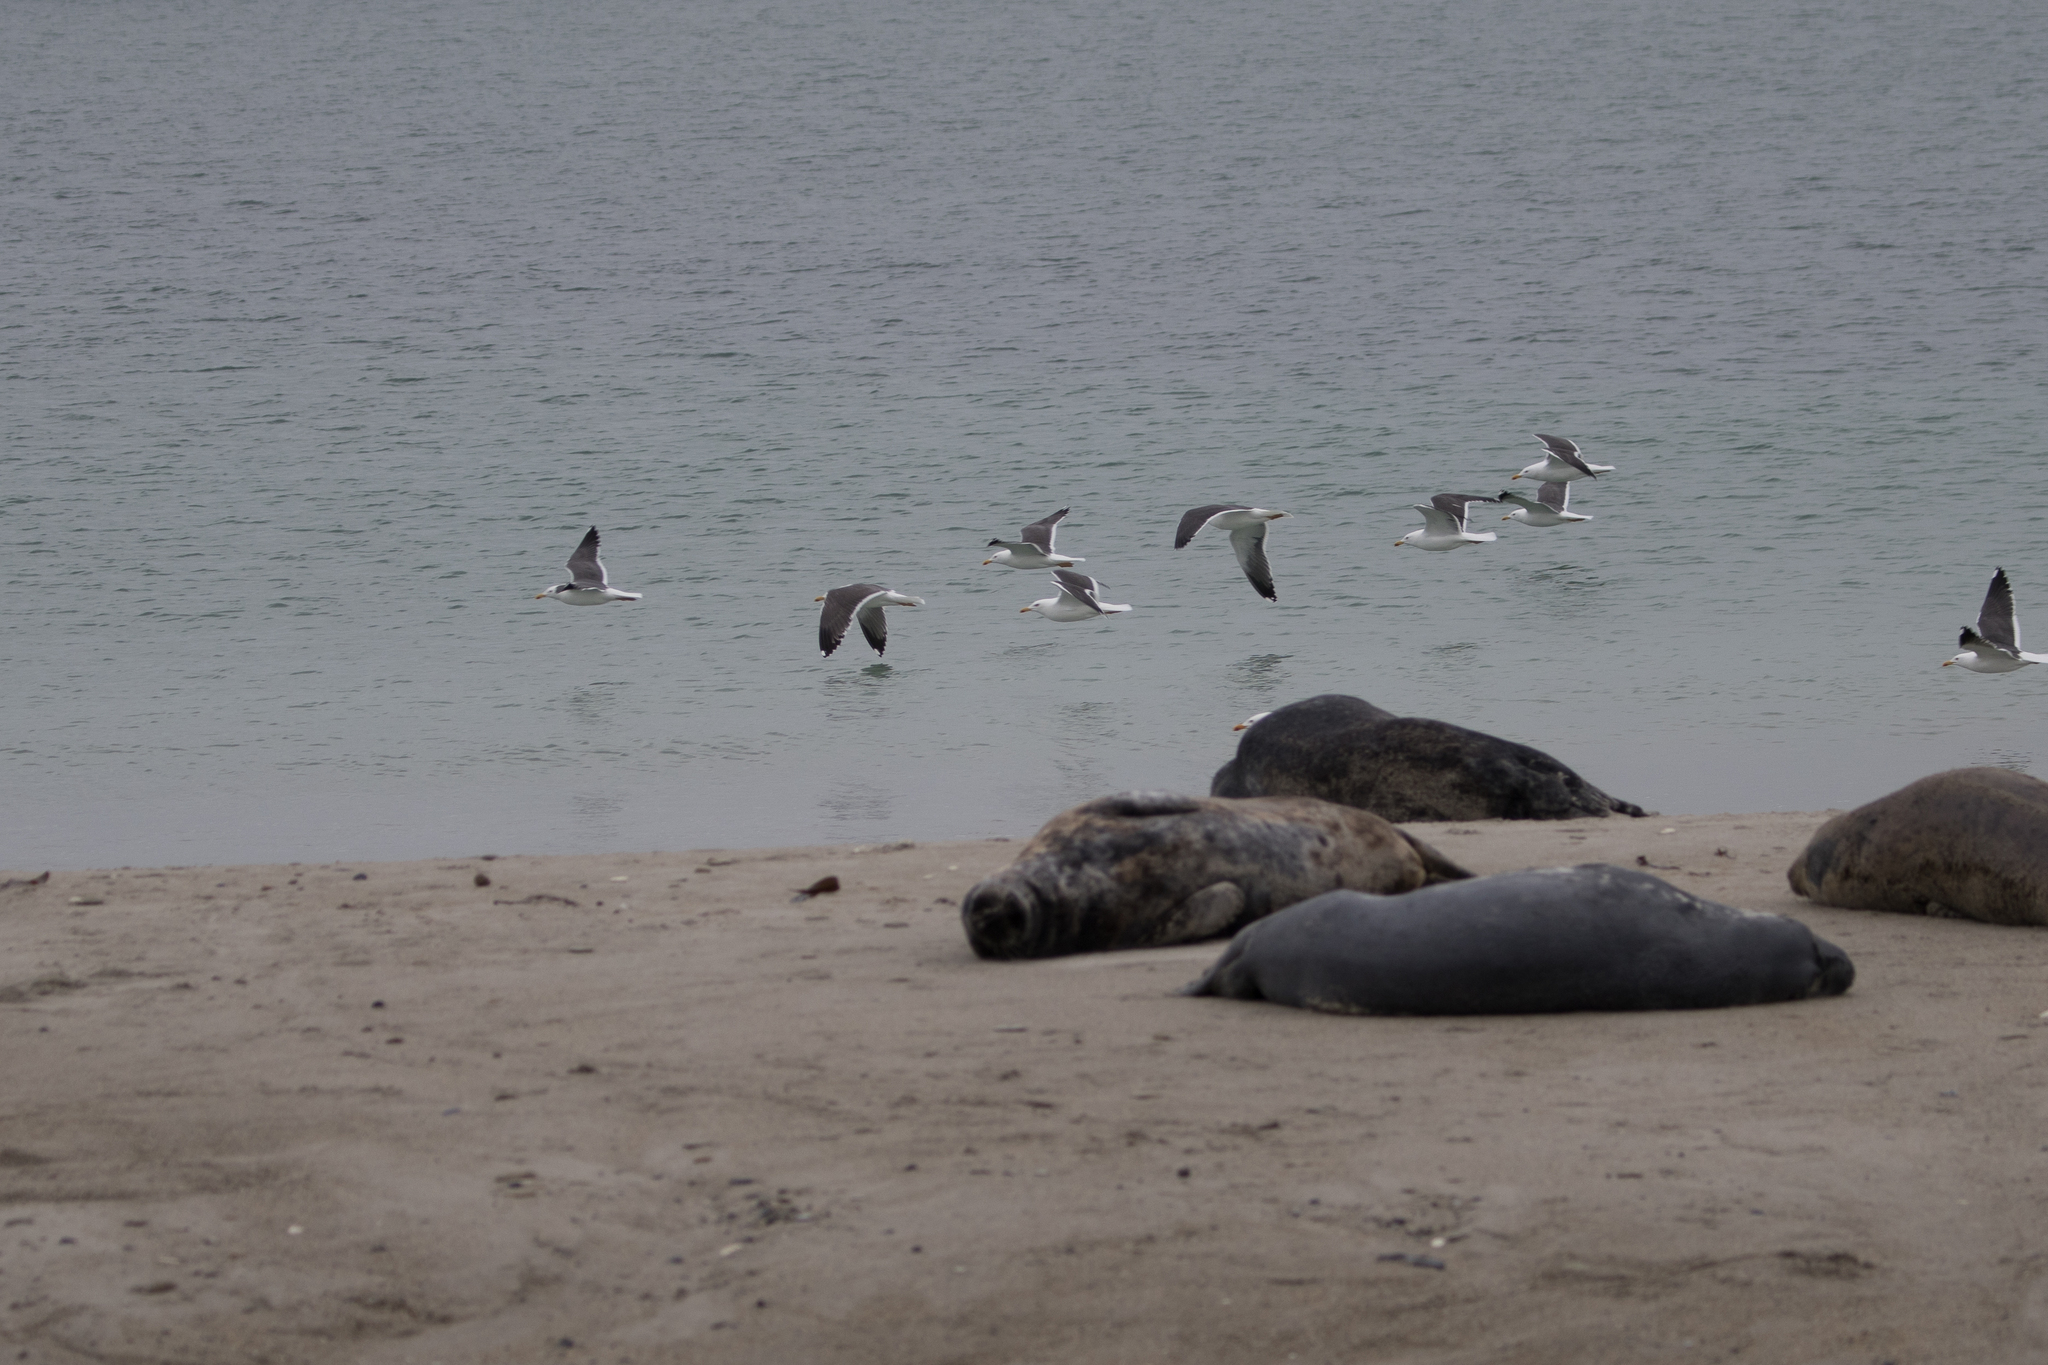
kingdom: Animalia
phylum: Chordata
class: Aves
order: Charadriiformes
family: Laridae
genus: Larus
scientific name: Larus fuscus
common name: Lesser black-backed gull
